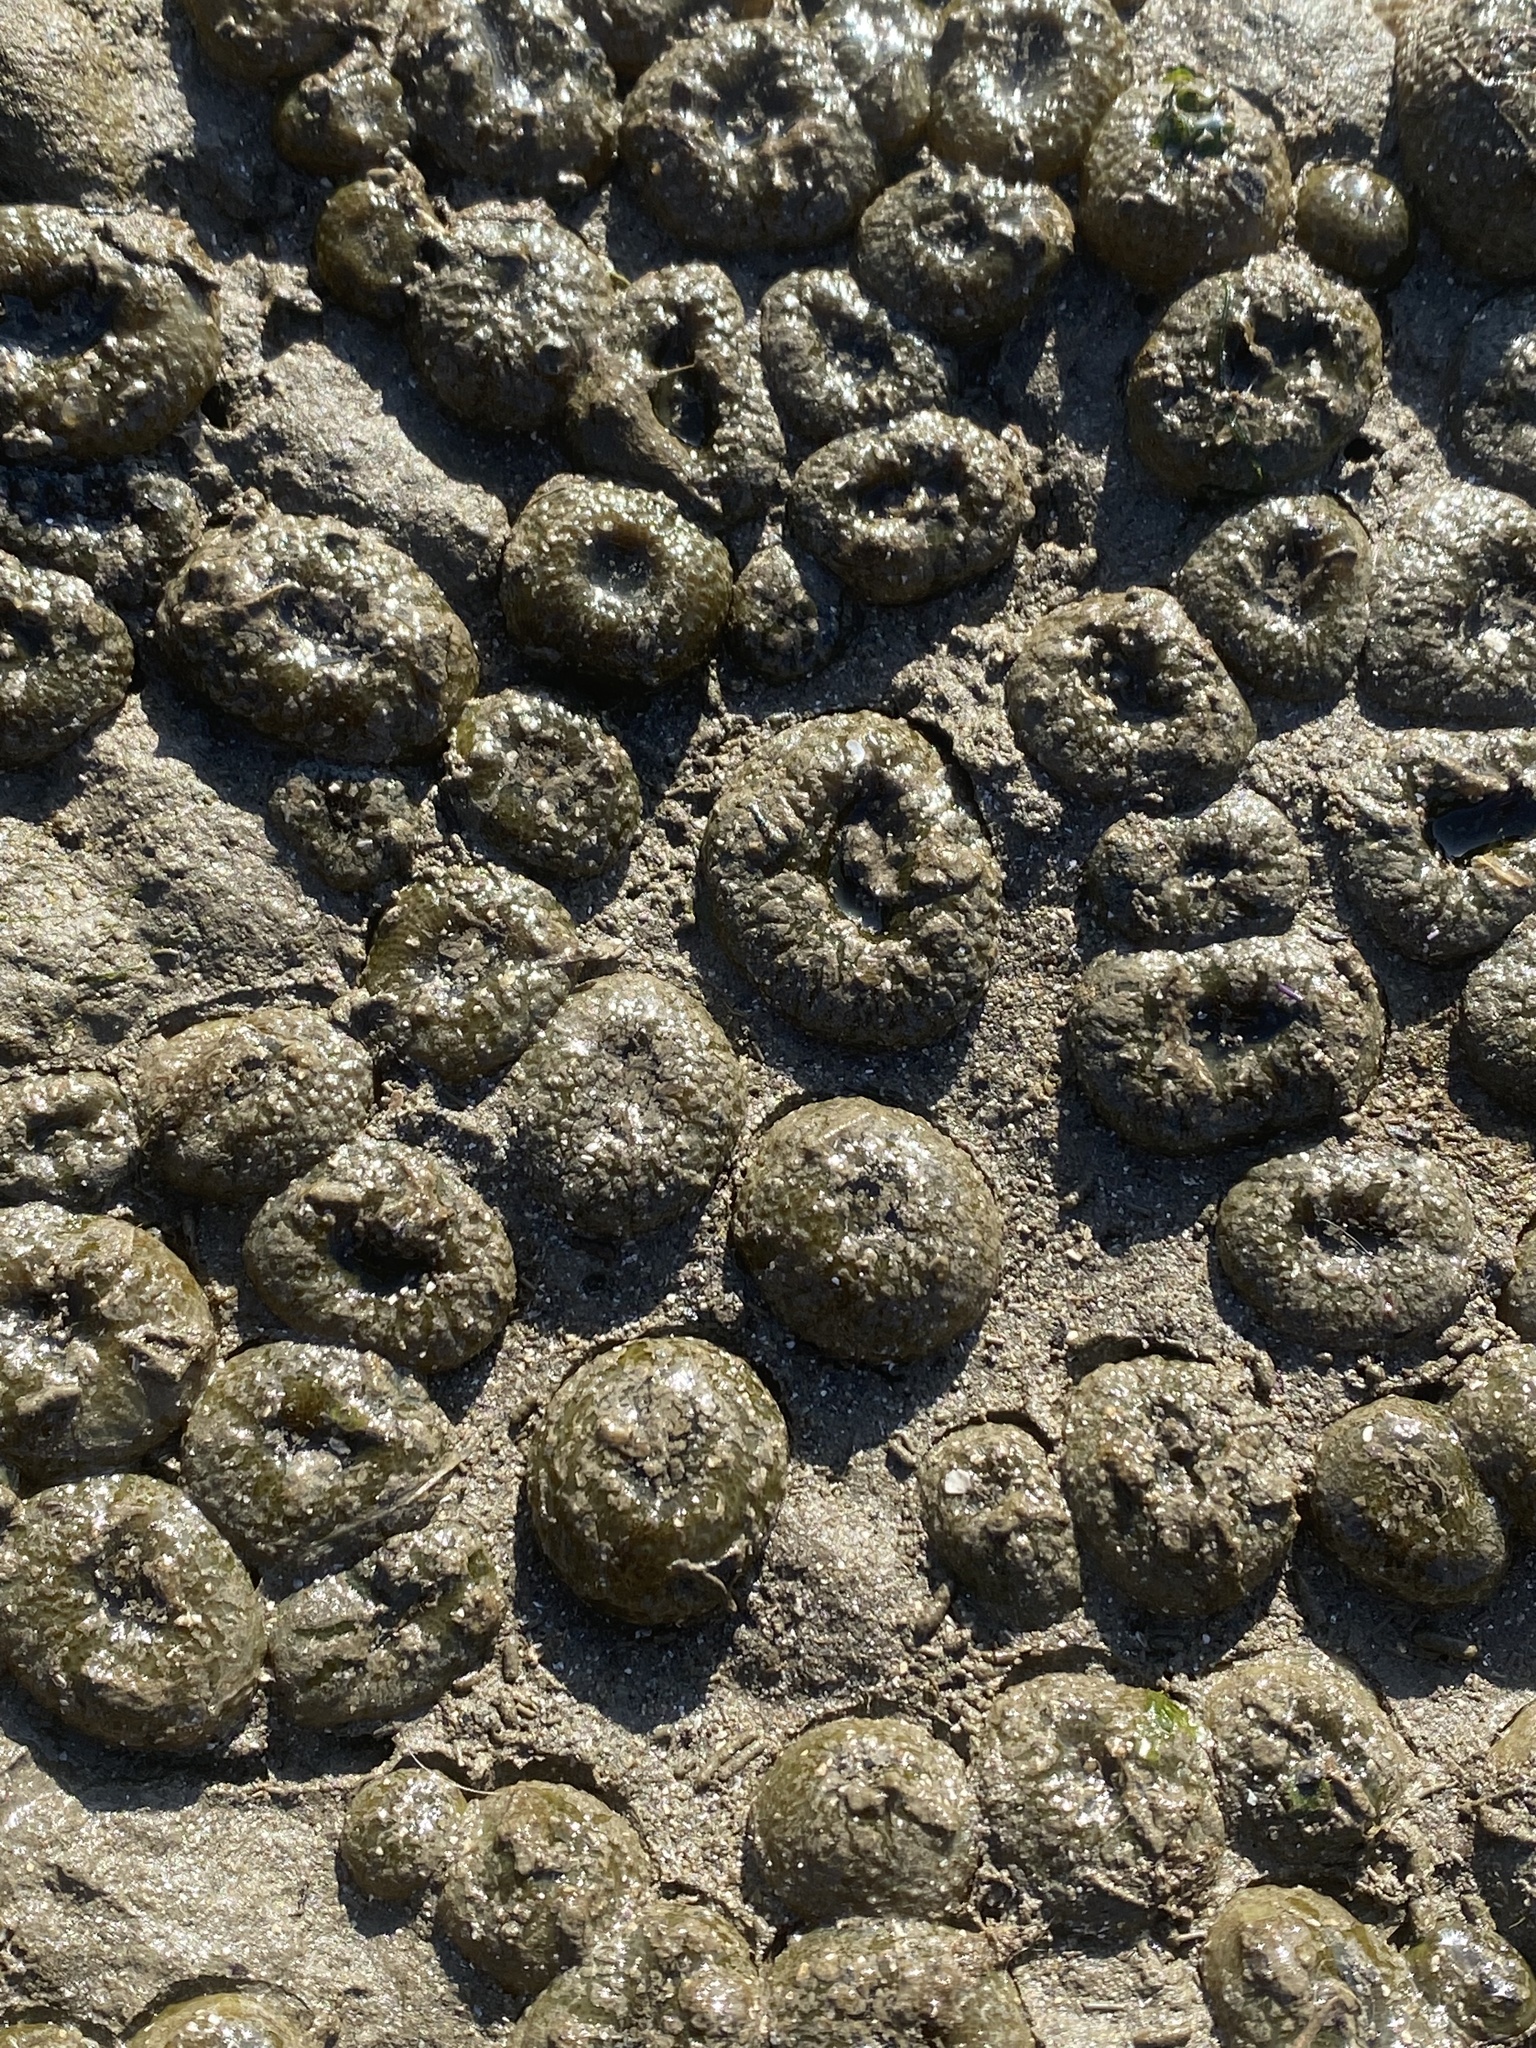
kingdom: Animalia
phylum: Cnidaria
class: Anthozoa
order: Actiniaria
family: Actiniidae
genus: Anthopleura
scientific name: Anthopleura elegantissima
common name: Clonal anemone
